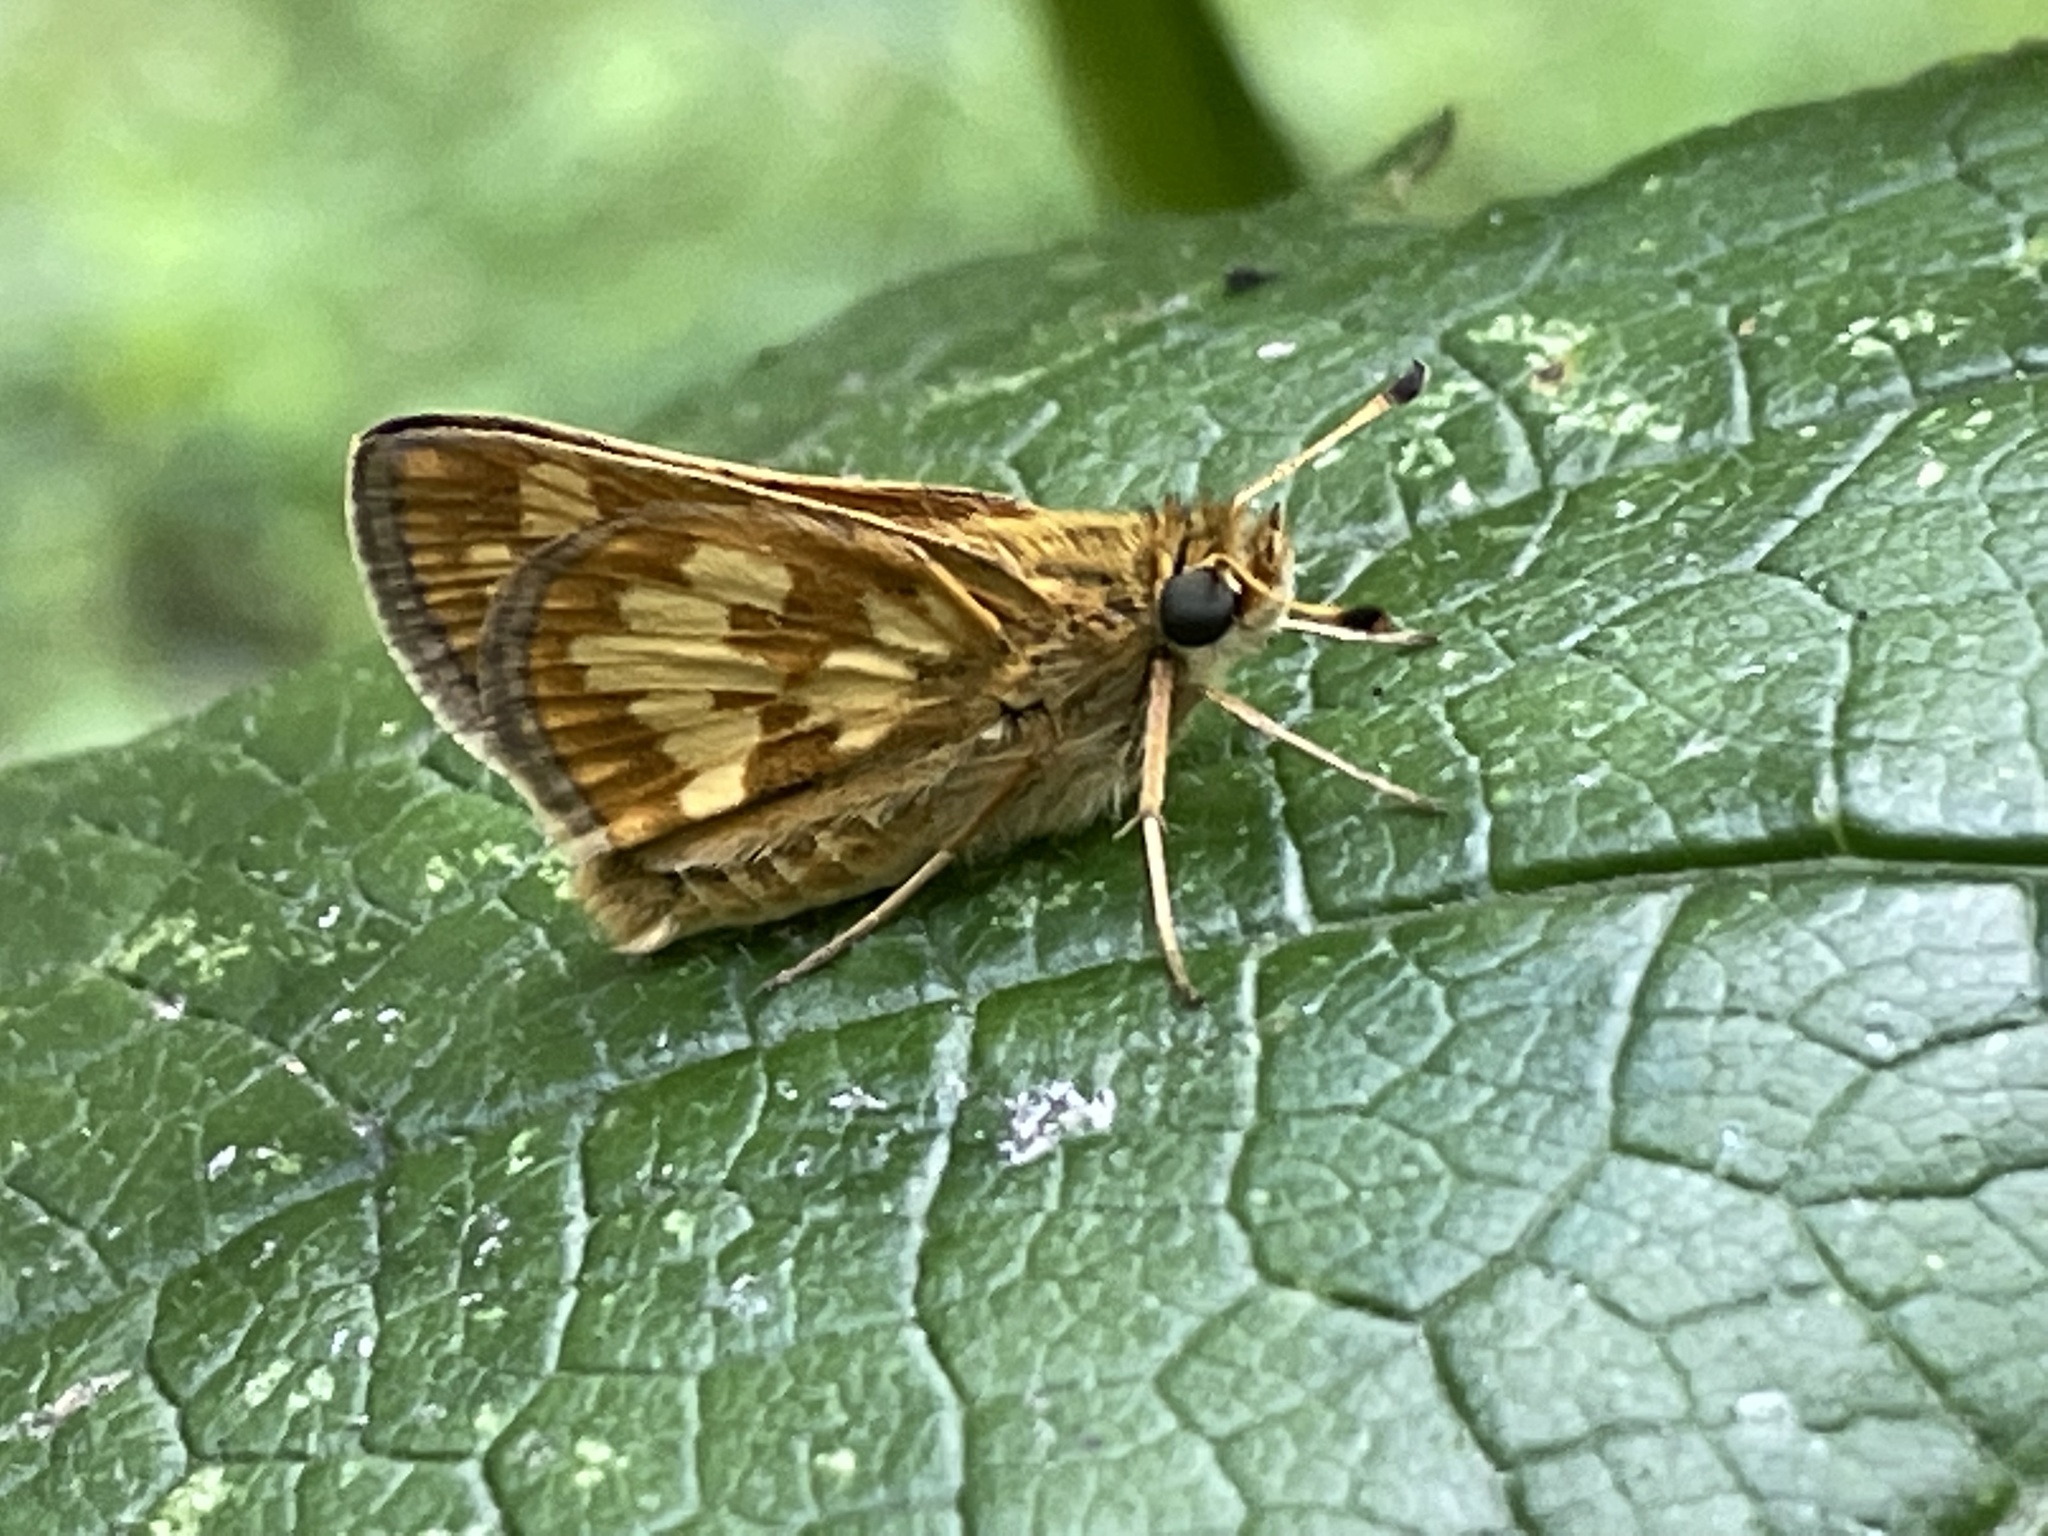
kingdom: Animalia
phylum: Arthropoda
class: Insecta
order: Lepidoptera
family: Hesperiidae
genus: Polites
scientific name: Polites coras
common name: Peck's skipper
